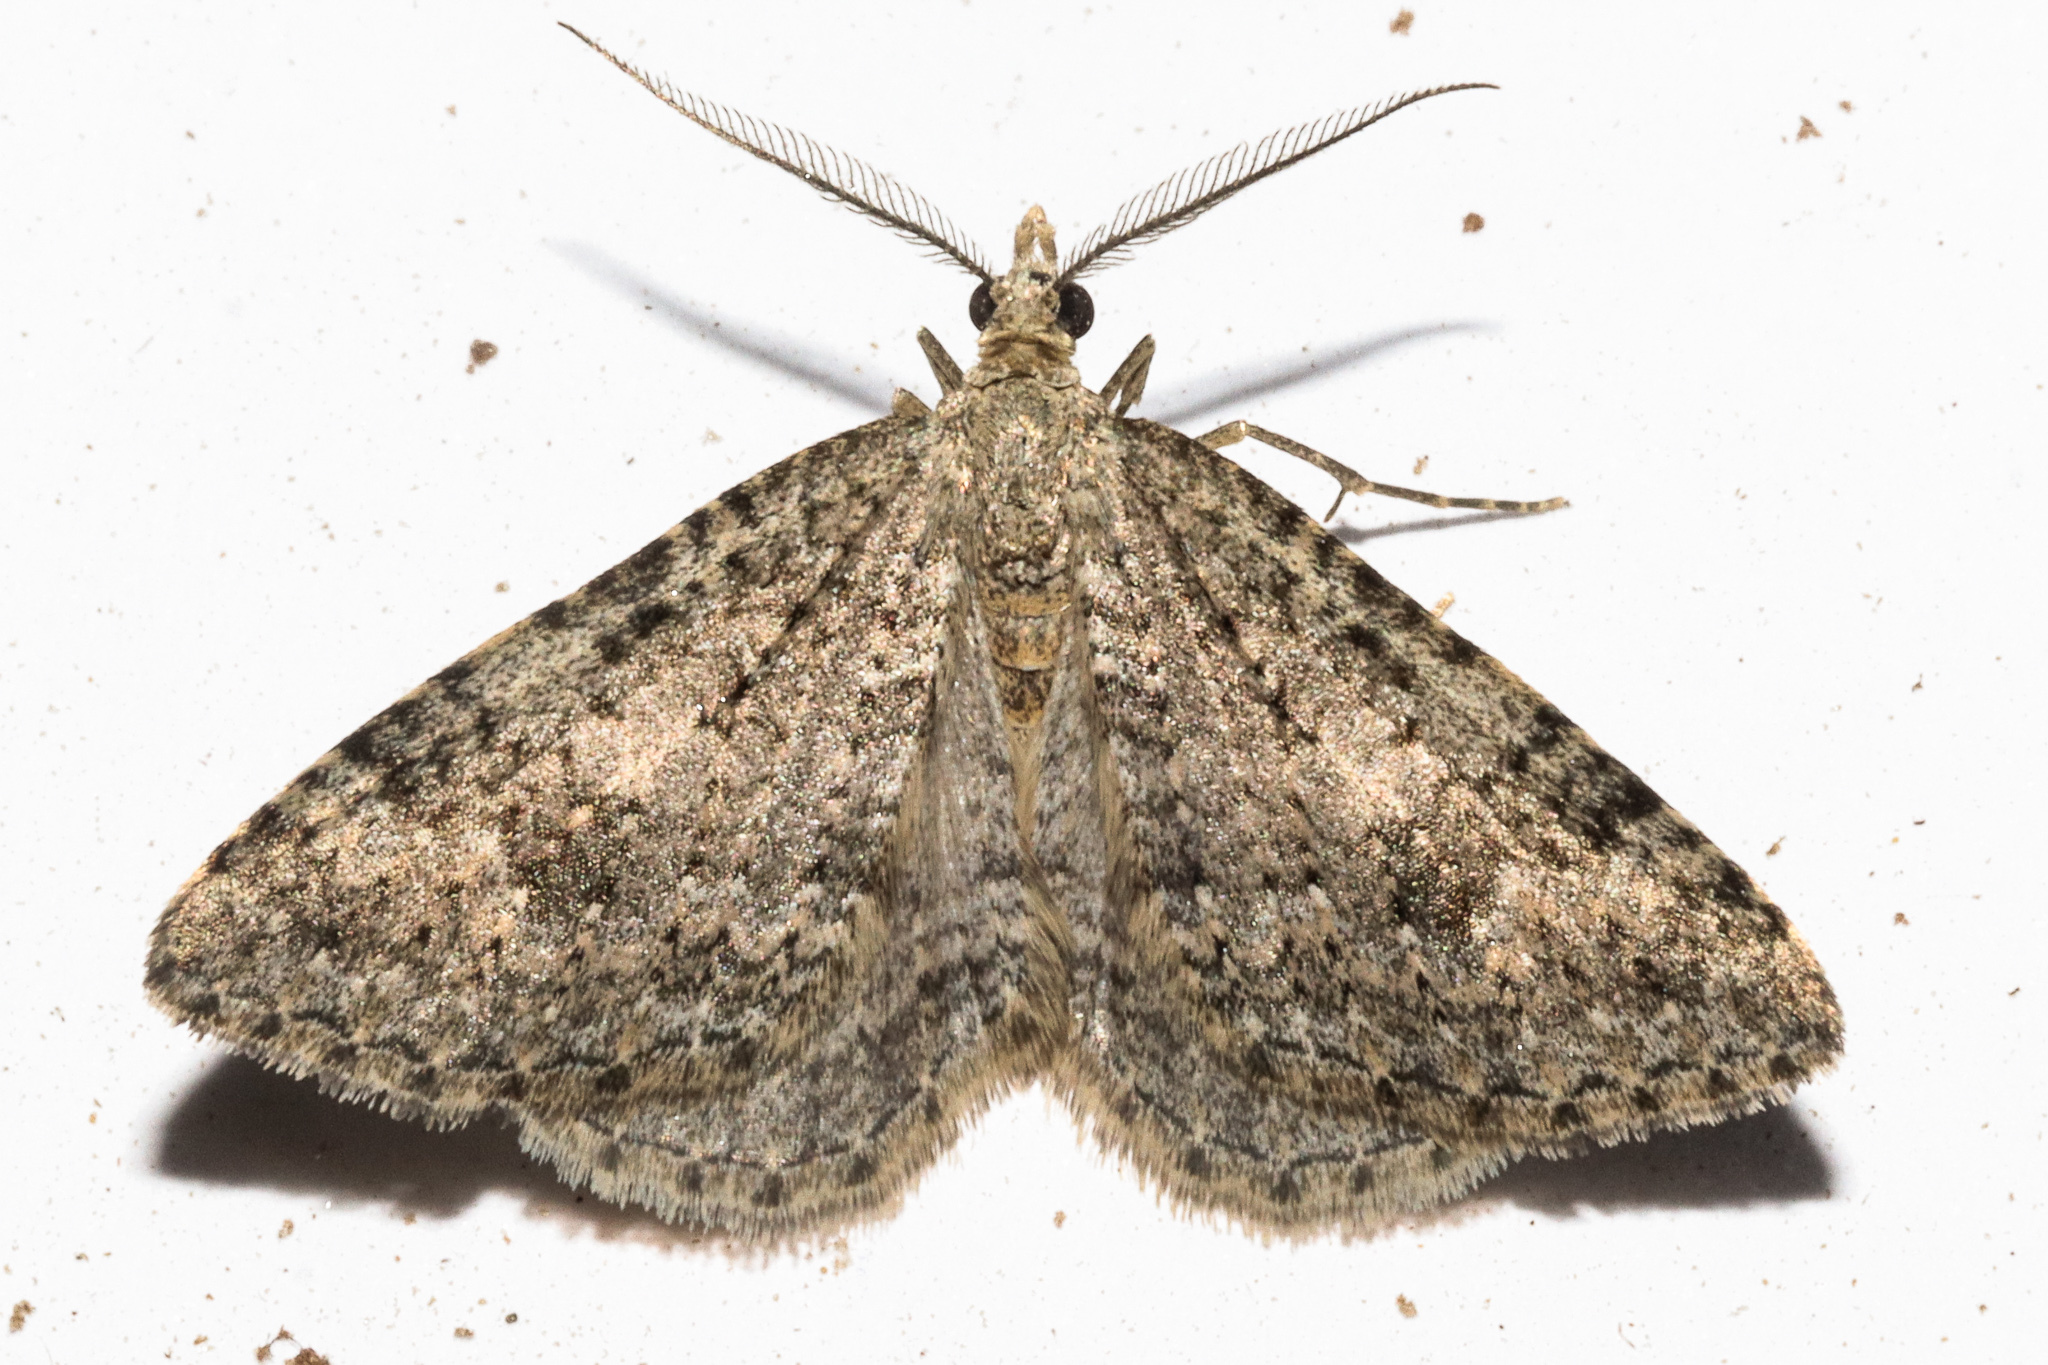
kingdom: Animalia
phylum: Arthropoda
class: Insecta
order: Lepidoptera
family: Geometridae
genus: Helastia
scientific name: Helastia corcularia
